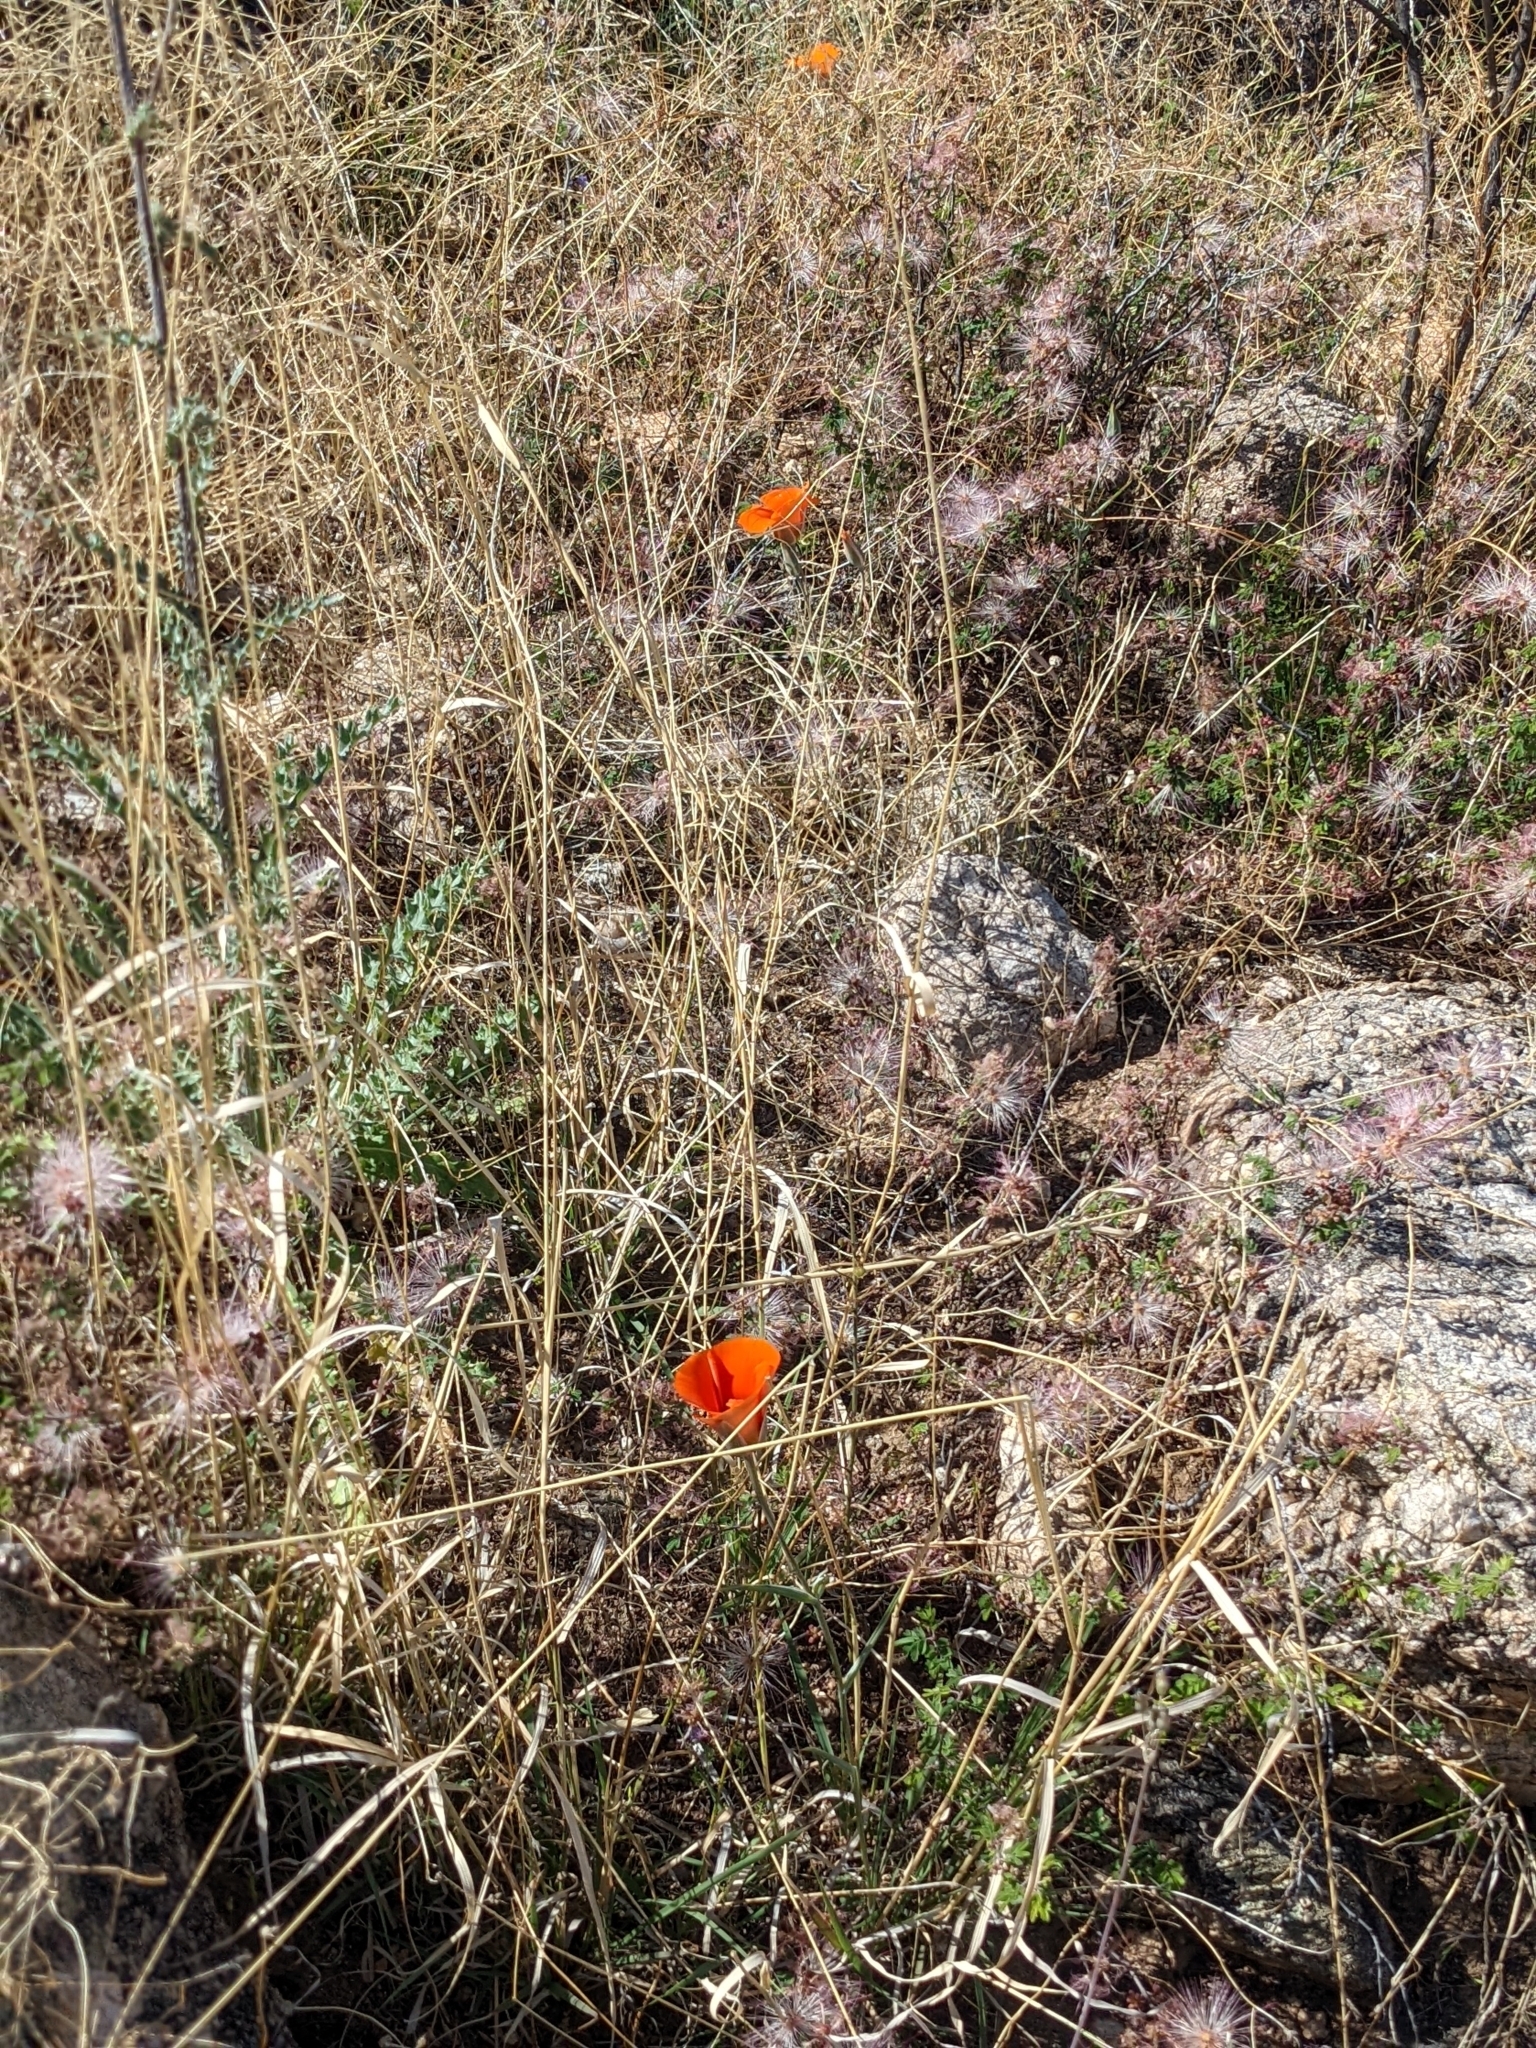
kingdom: Plantae
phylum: Tracheophyta
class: Liliopsida
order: Liliales
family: Liliaceae
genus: Calochortus
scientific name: Calochortus kennedyi
